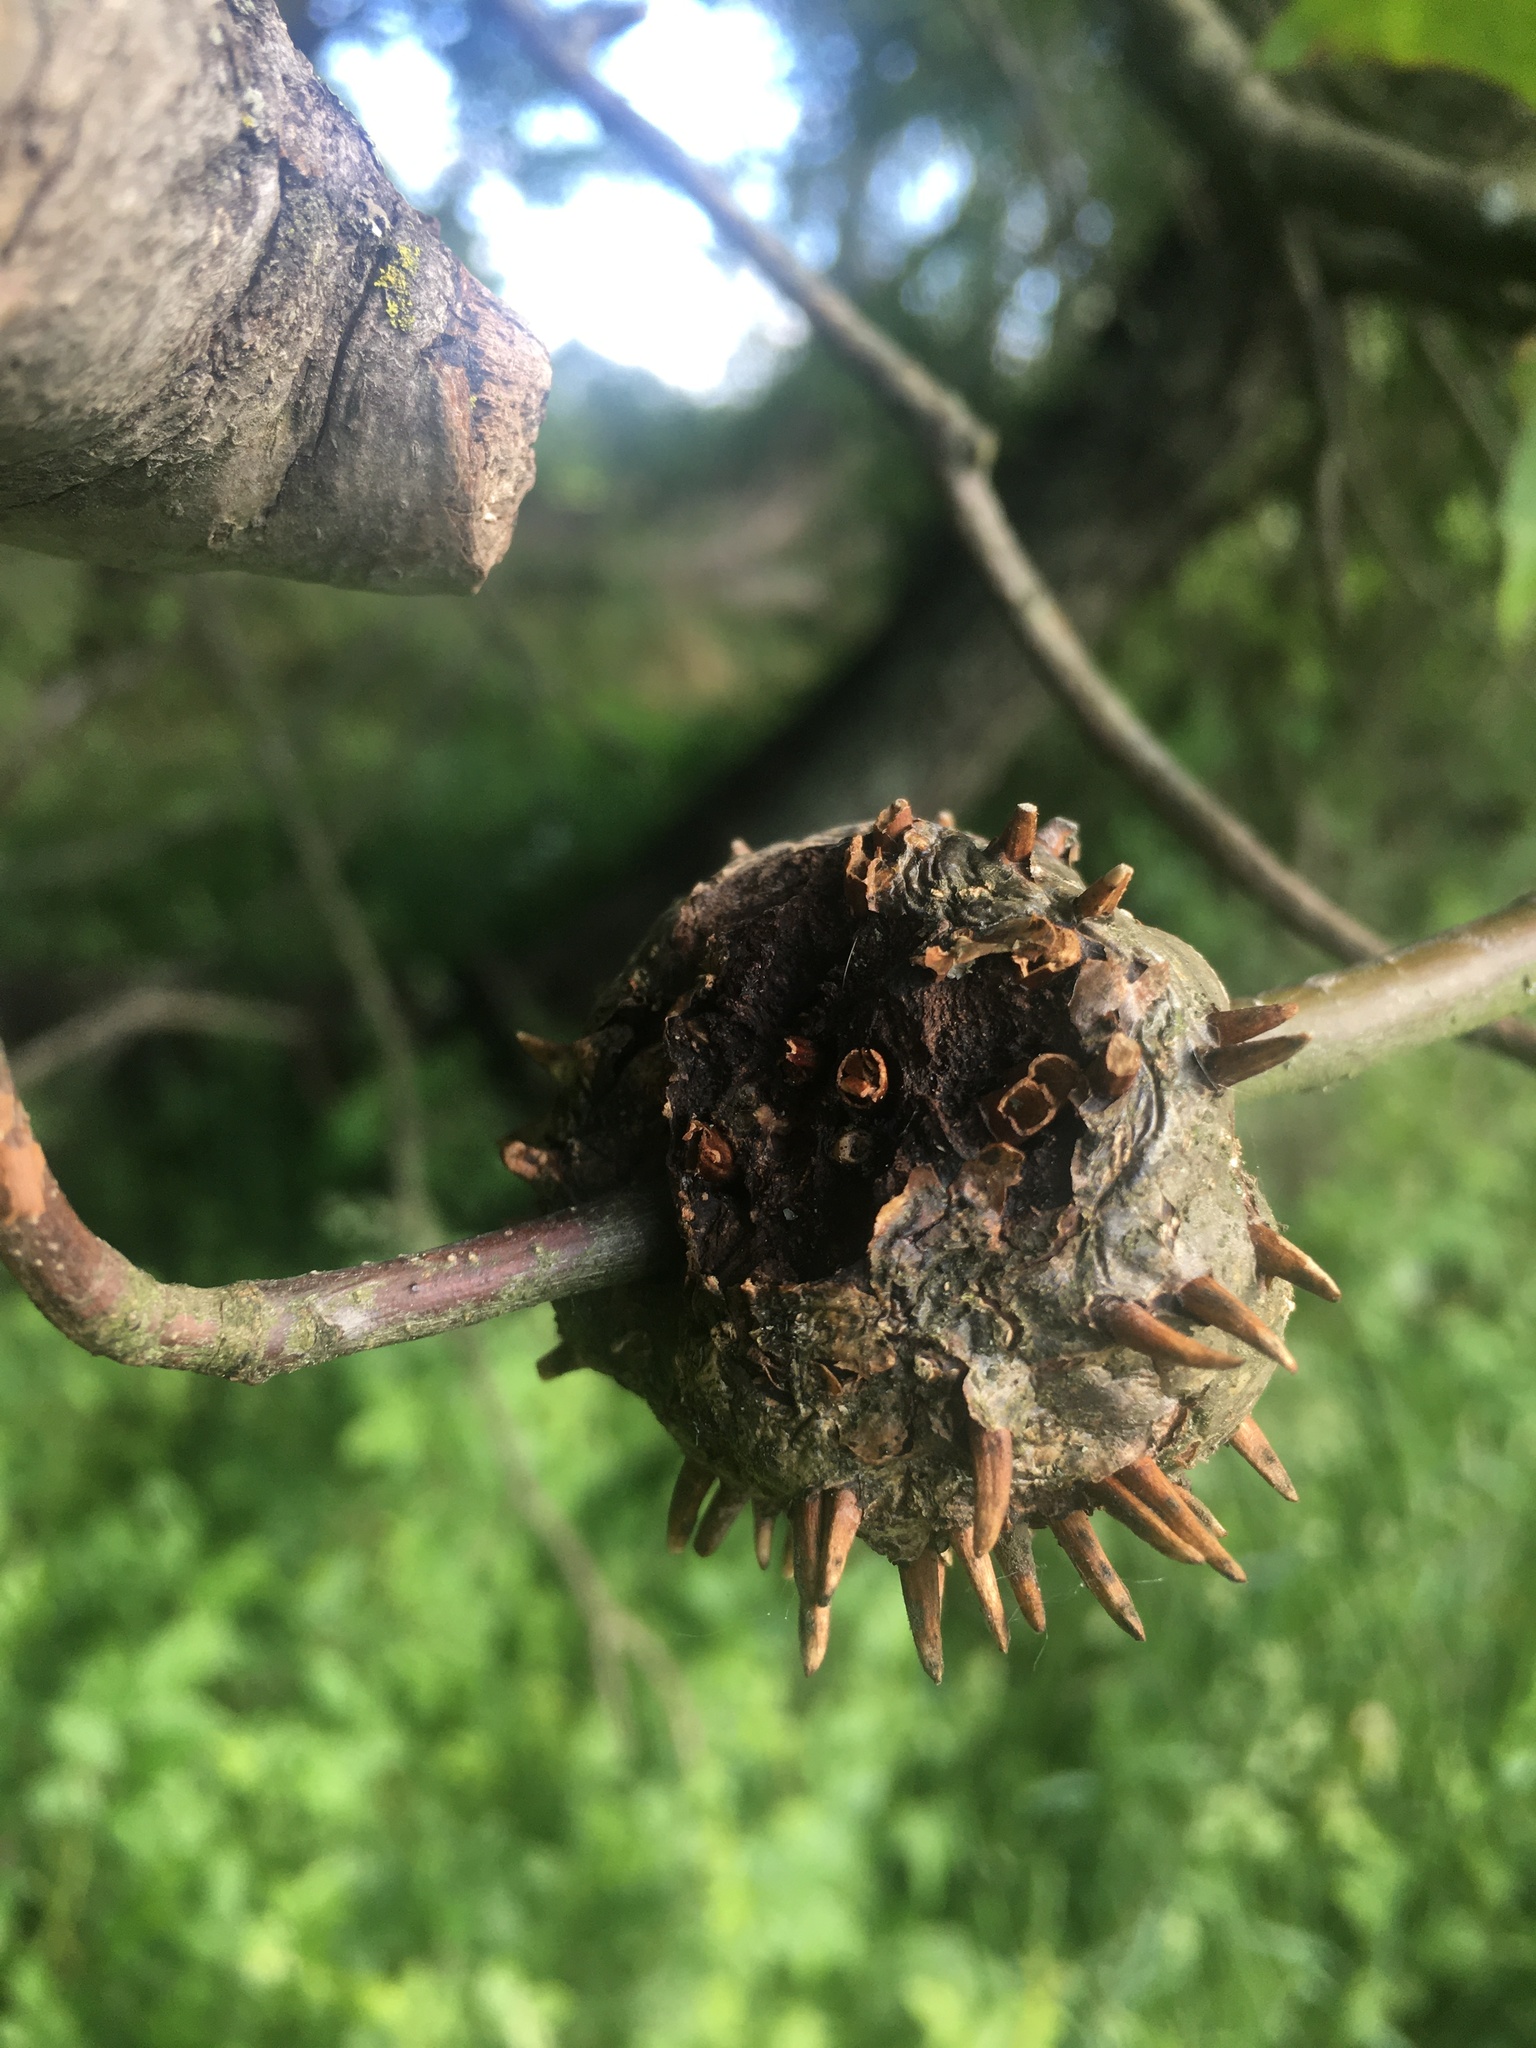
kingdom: Animalia
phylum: Arthropoda
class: Insecta
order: Hymenoptera
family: Cynipidae
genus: Callirhytis
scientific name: Callirhytis
